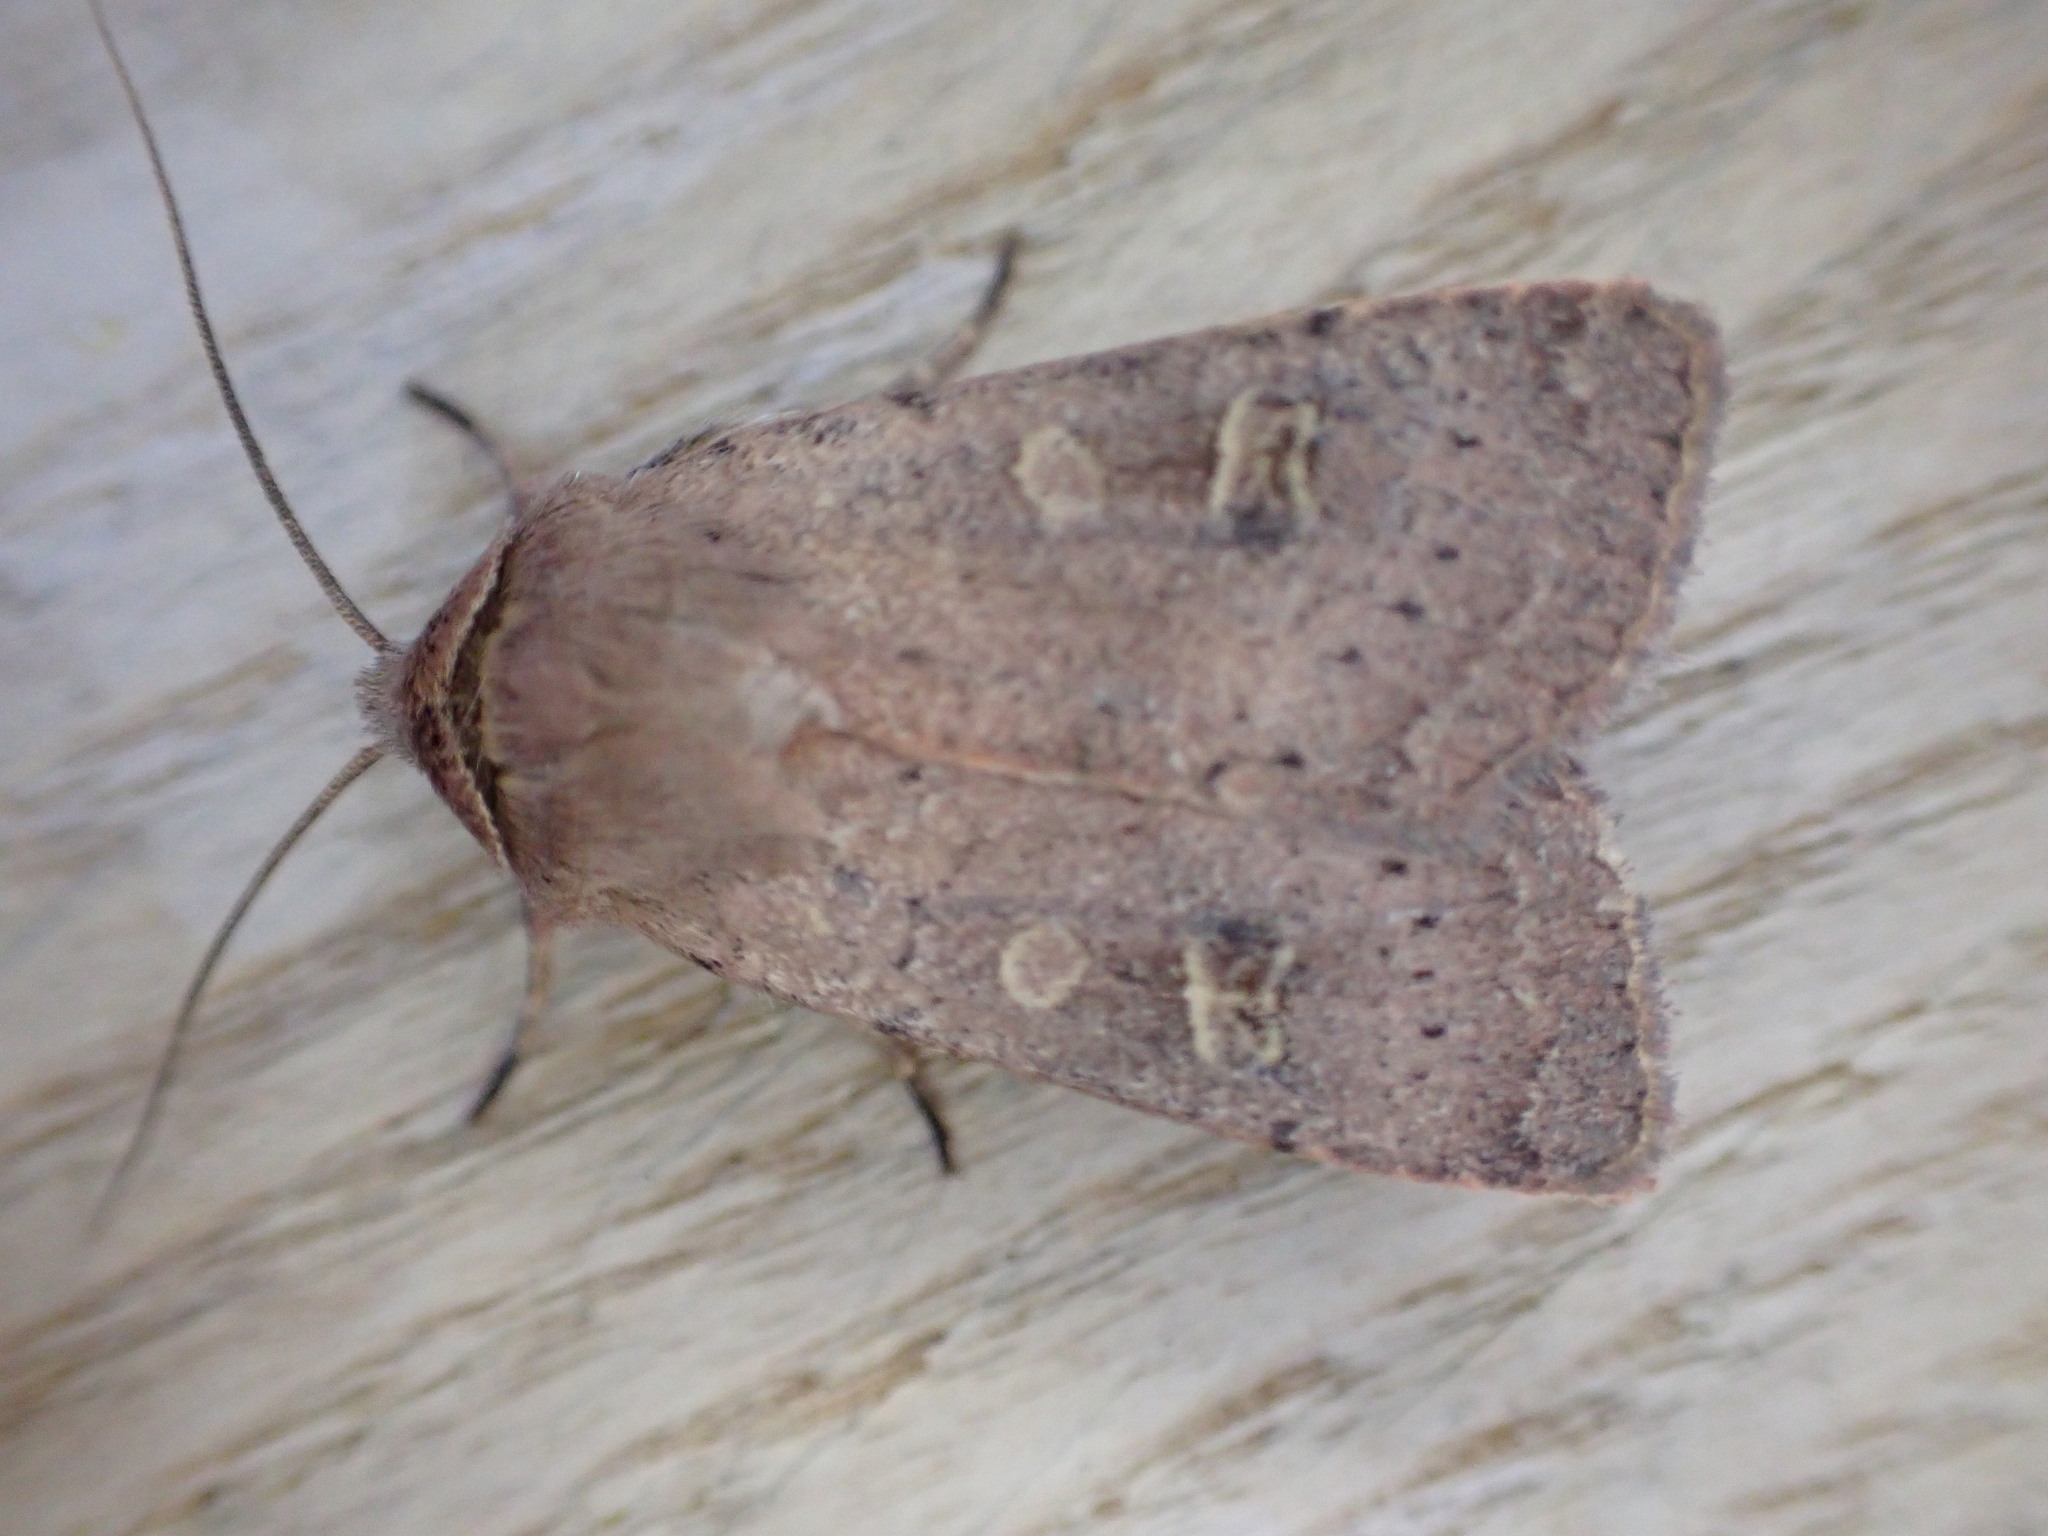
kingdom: Animalia
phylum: Arthropoda
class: Insecta
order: Lepidoptera
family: Noctuidae
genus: Xestia
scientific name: Xestia xanthographa
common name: Square-spot rustic
